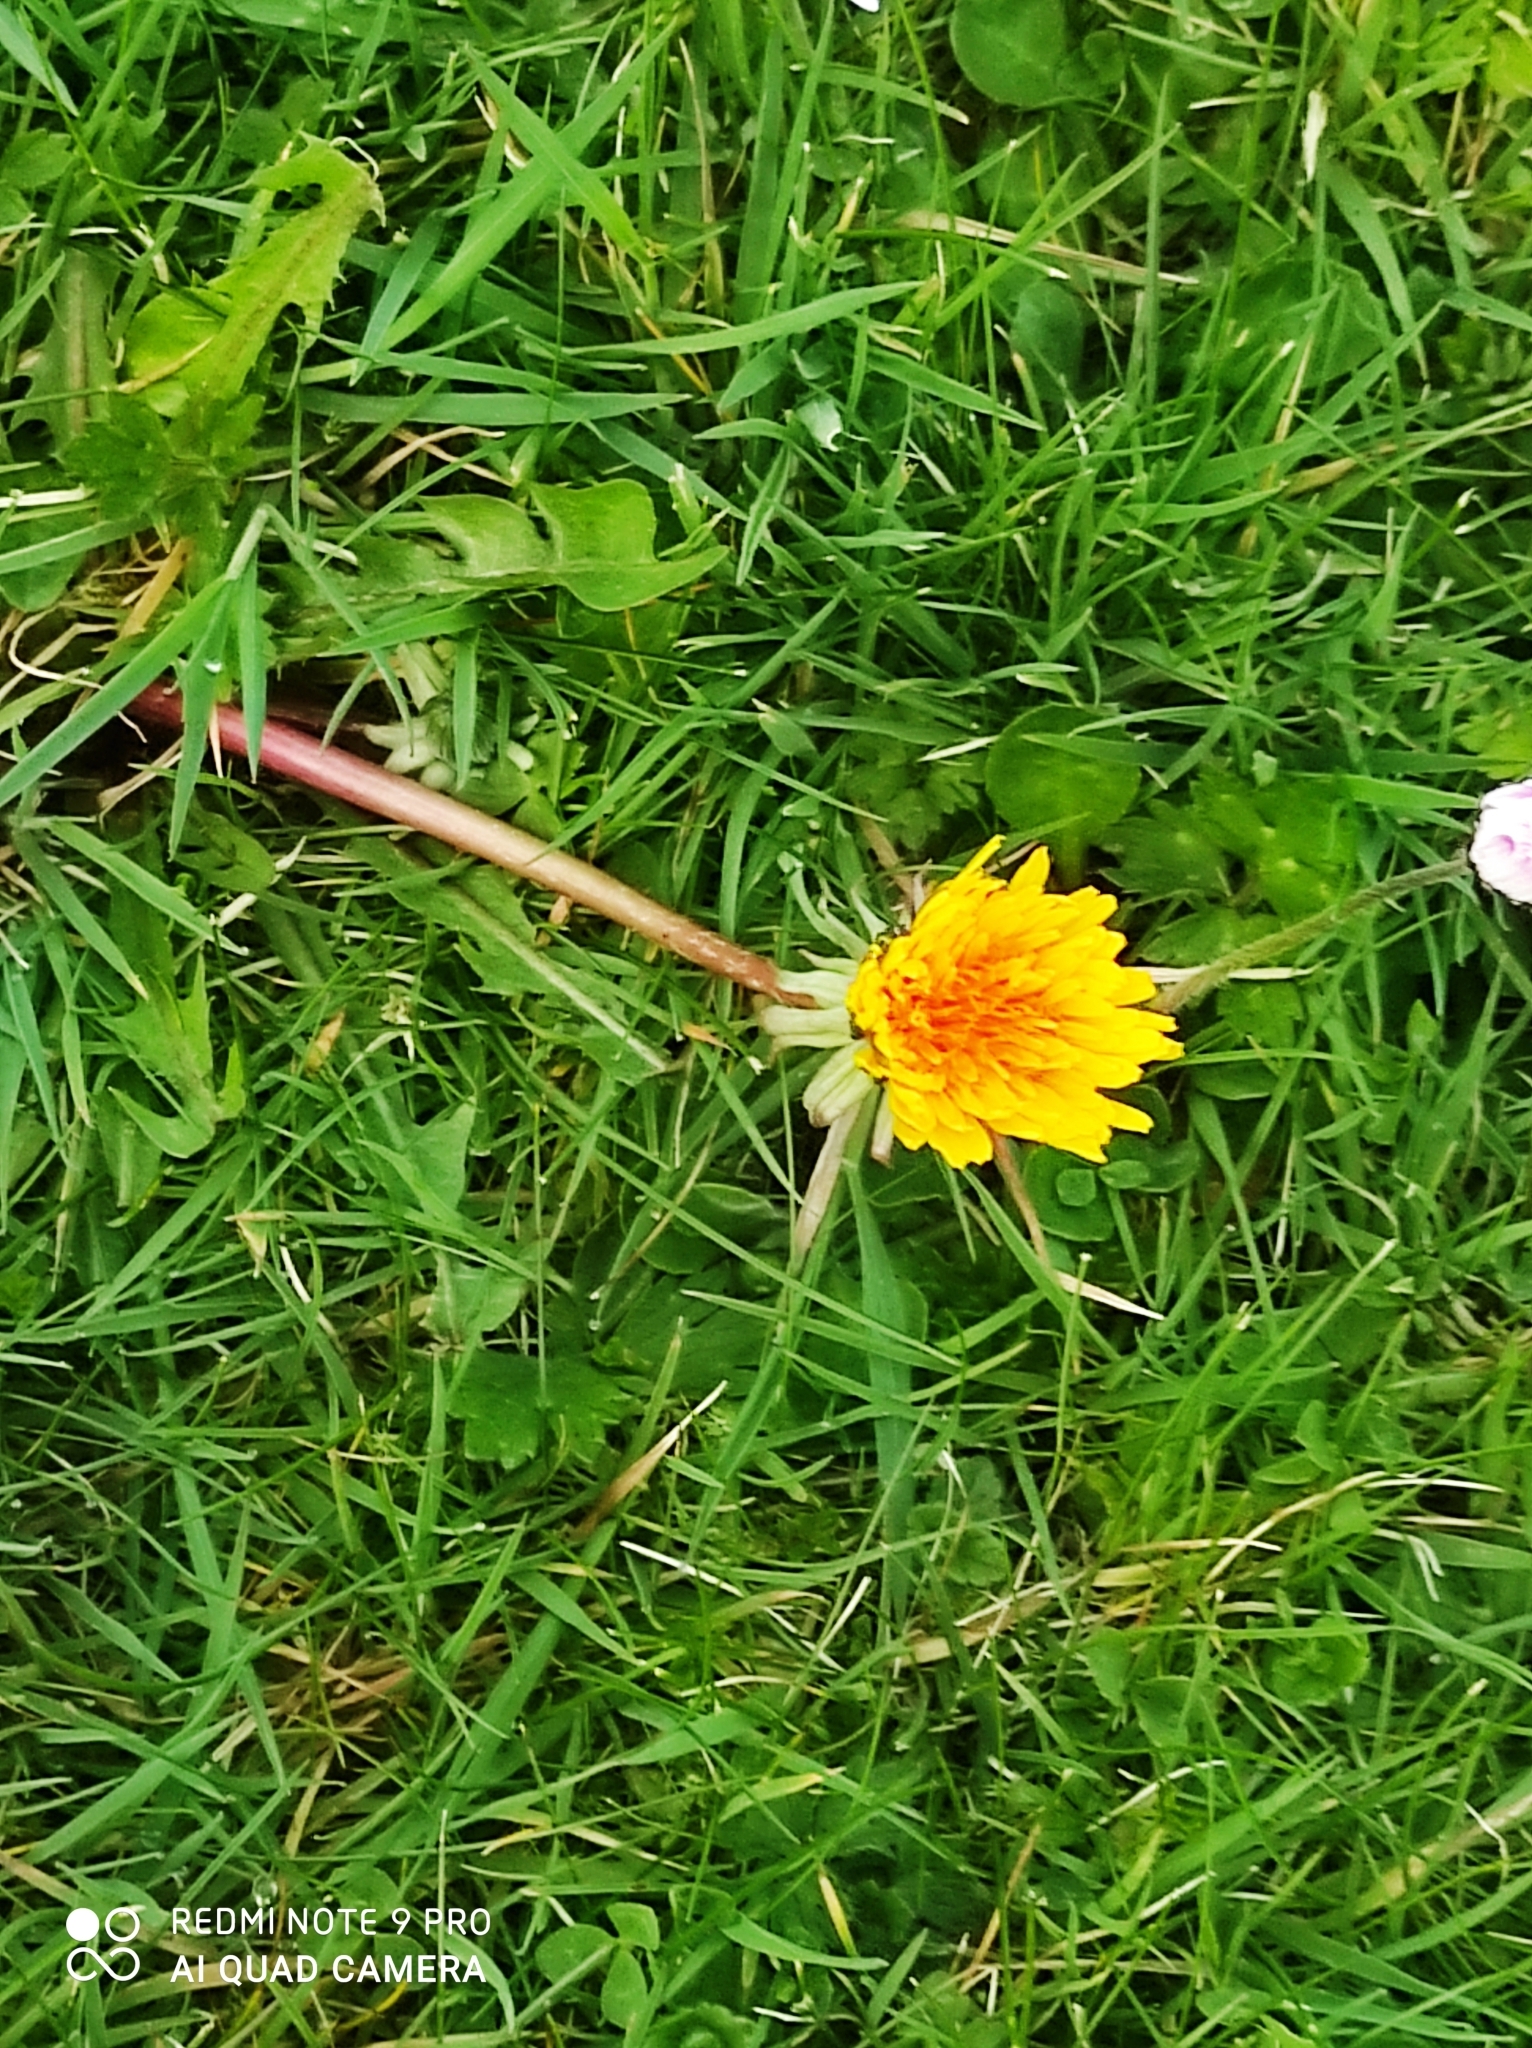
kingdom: Plantae
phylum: Tracheophyta
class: Magnoliopsida
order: Asterales
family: Asteraceae
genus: Taraxacum
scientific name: Taraxacum officinale
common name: Common dandelion
